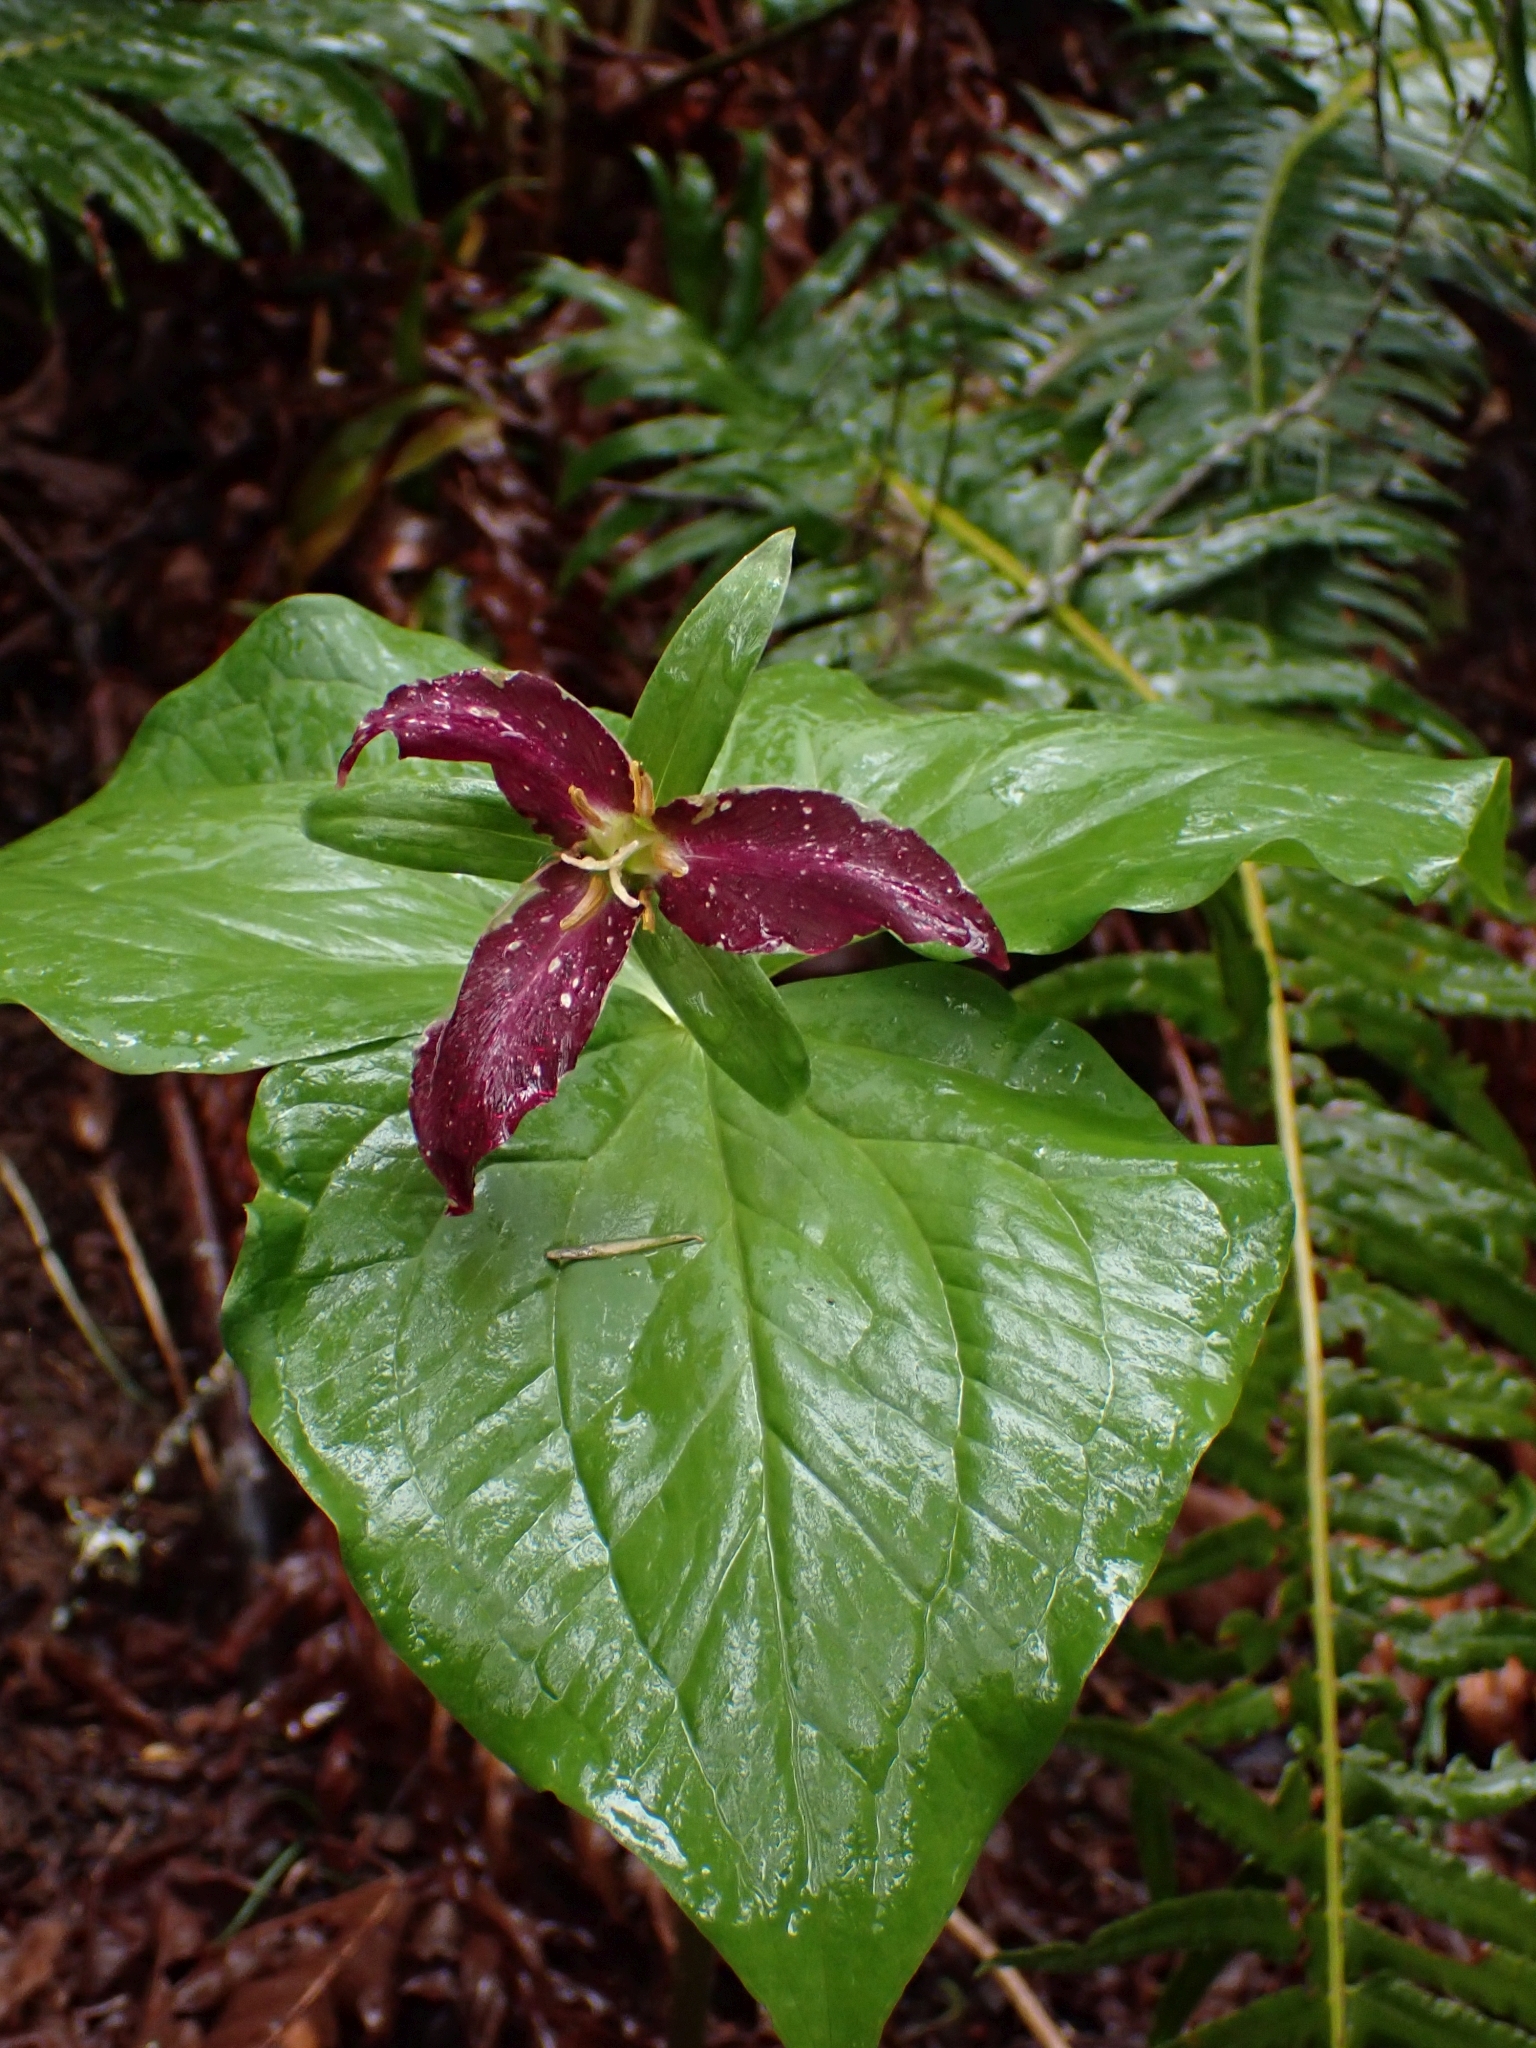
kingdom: Plantae
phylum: Tracheophyta
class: Liliopsida
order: Liliales
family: Melanthiaceae
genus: Trillium
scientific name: Trillium ovatum
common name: Pacific trillium
